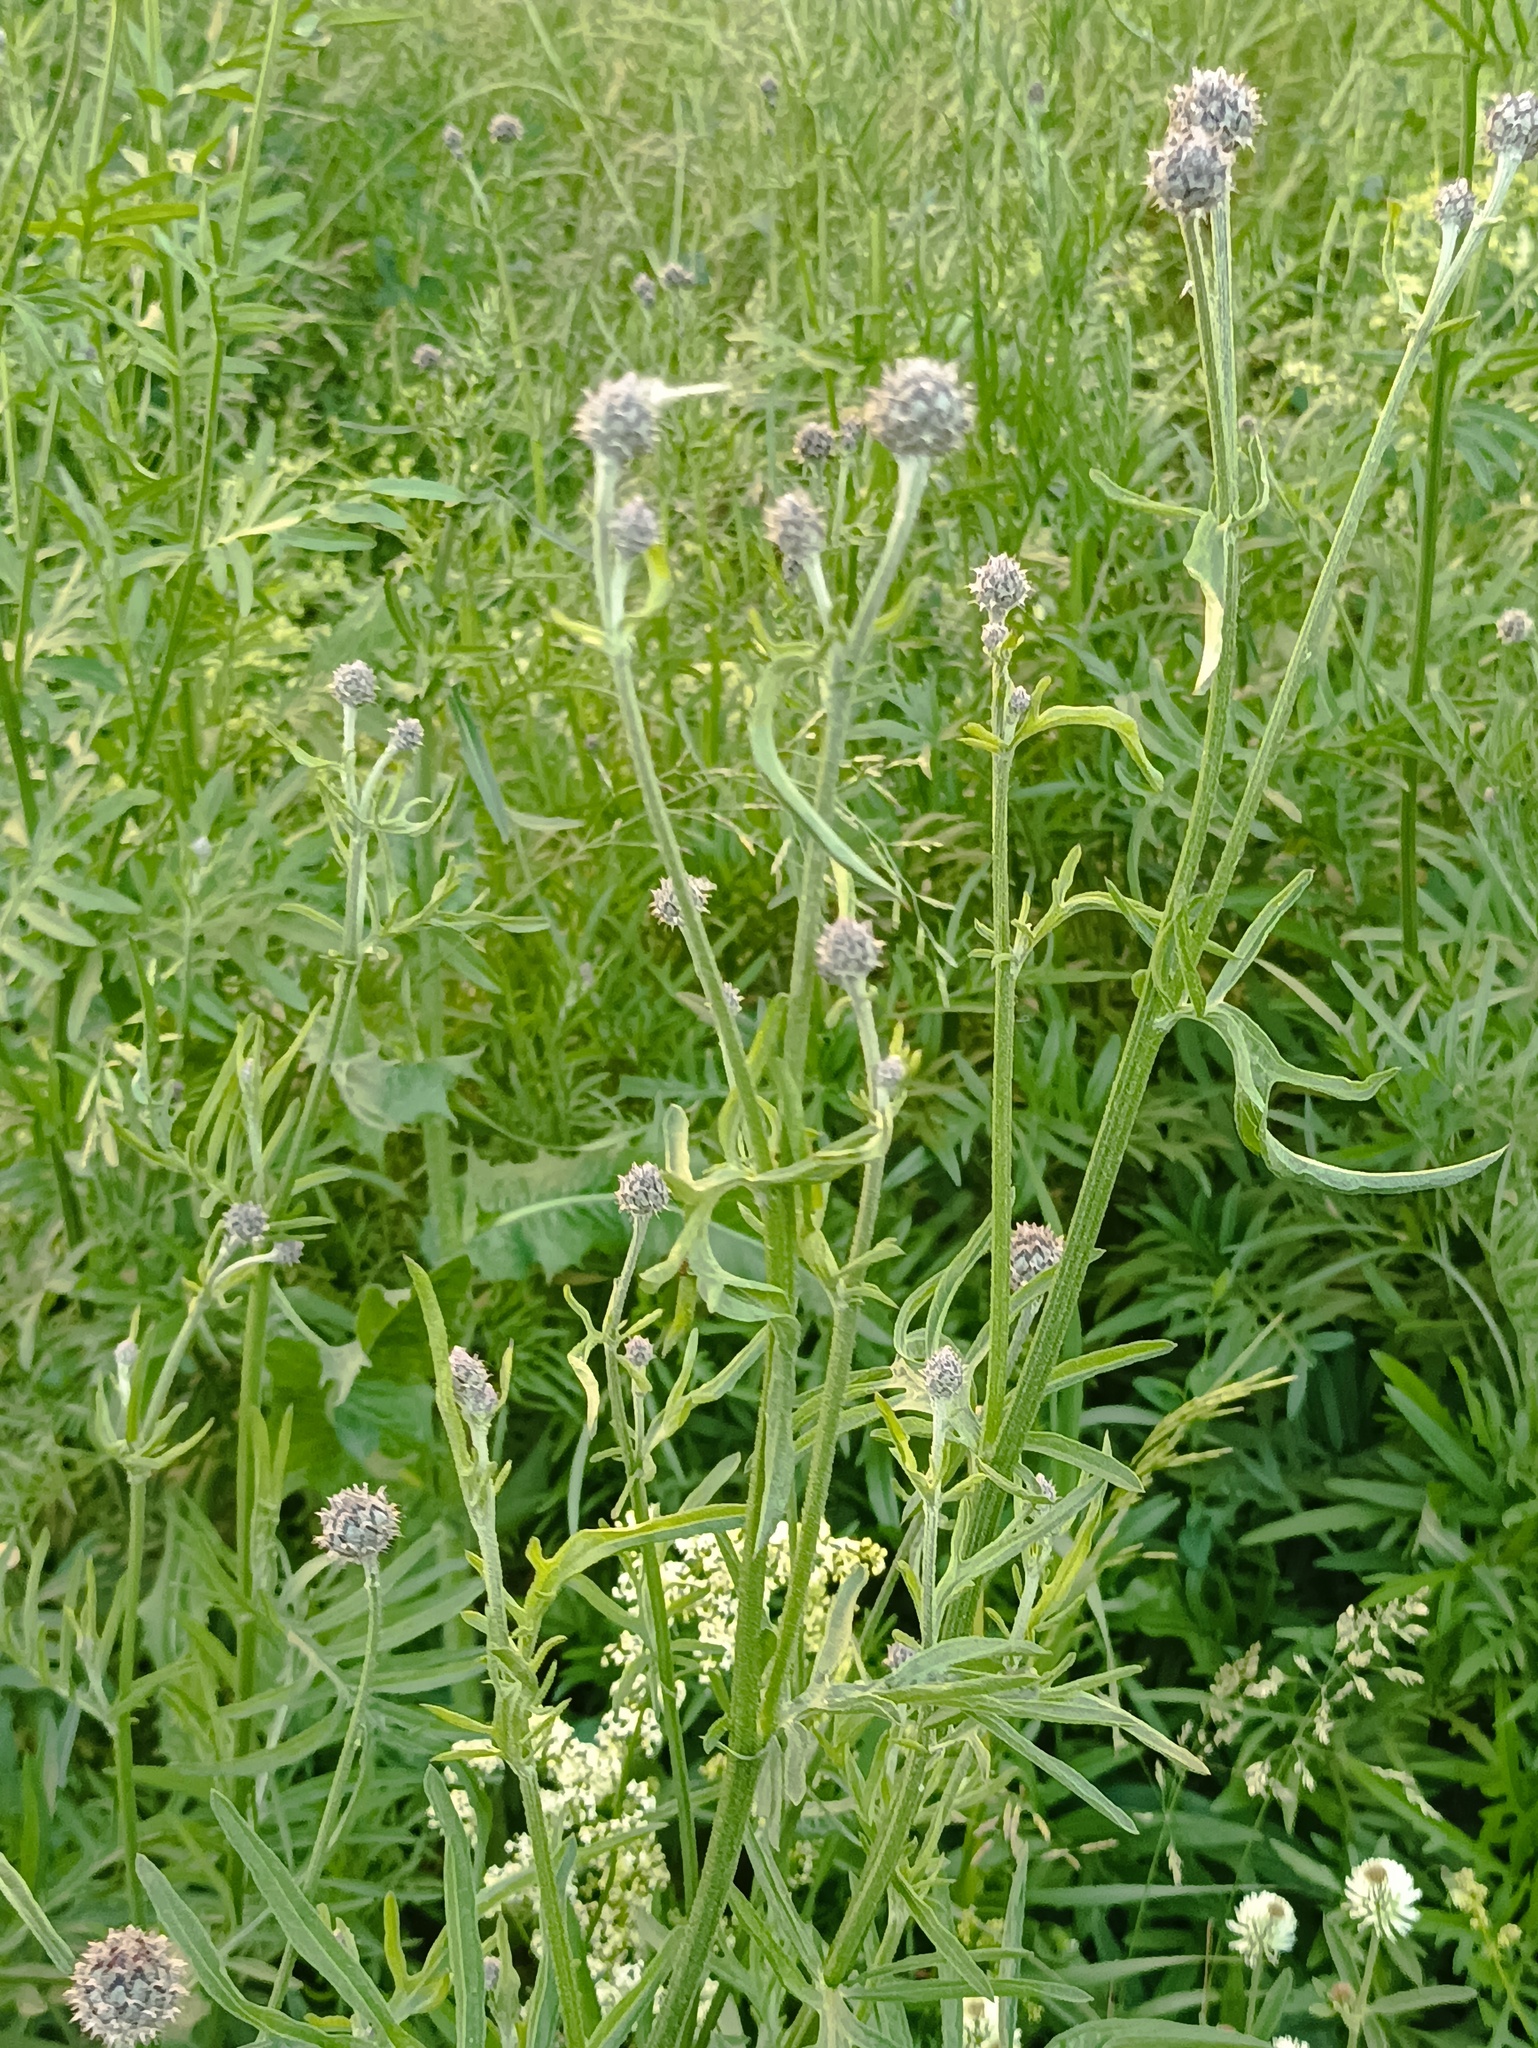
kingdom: Plantae
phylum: Tracheophyta
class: Magnoliopsida
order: Asterales
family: Asteraceae
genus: Centaurea
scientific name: Centaurea scabiosa
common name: Greater knapweed
